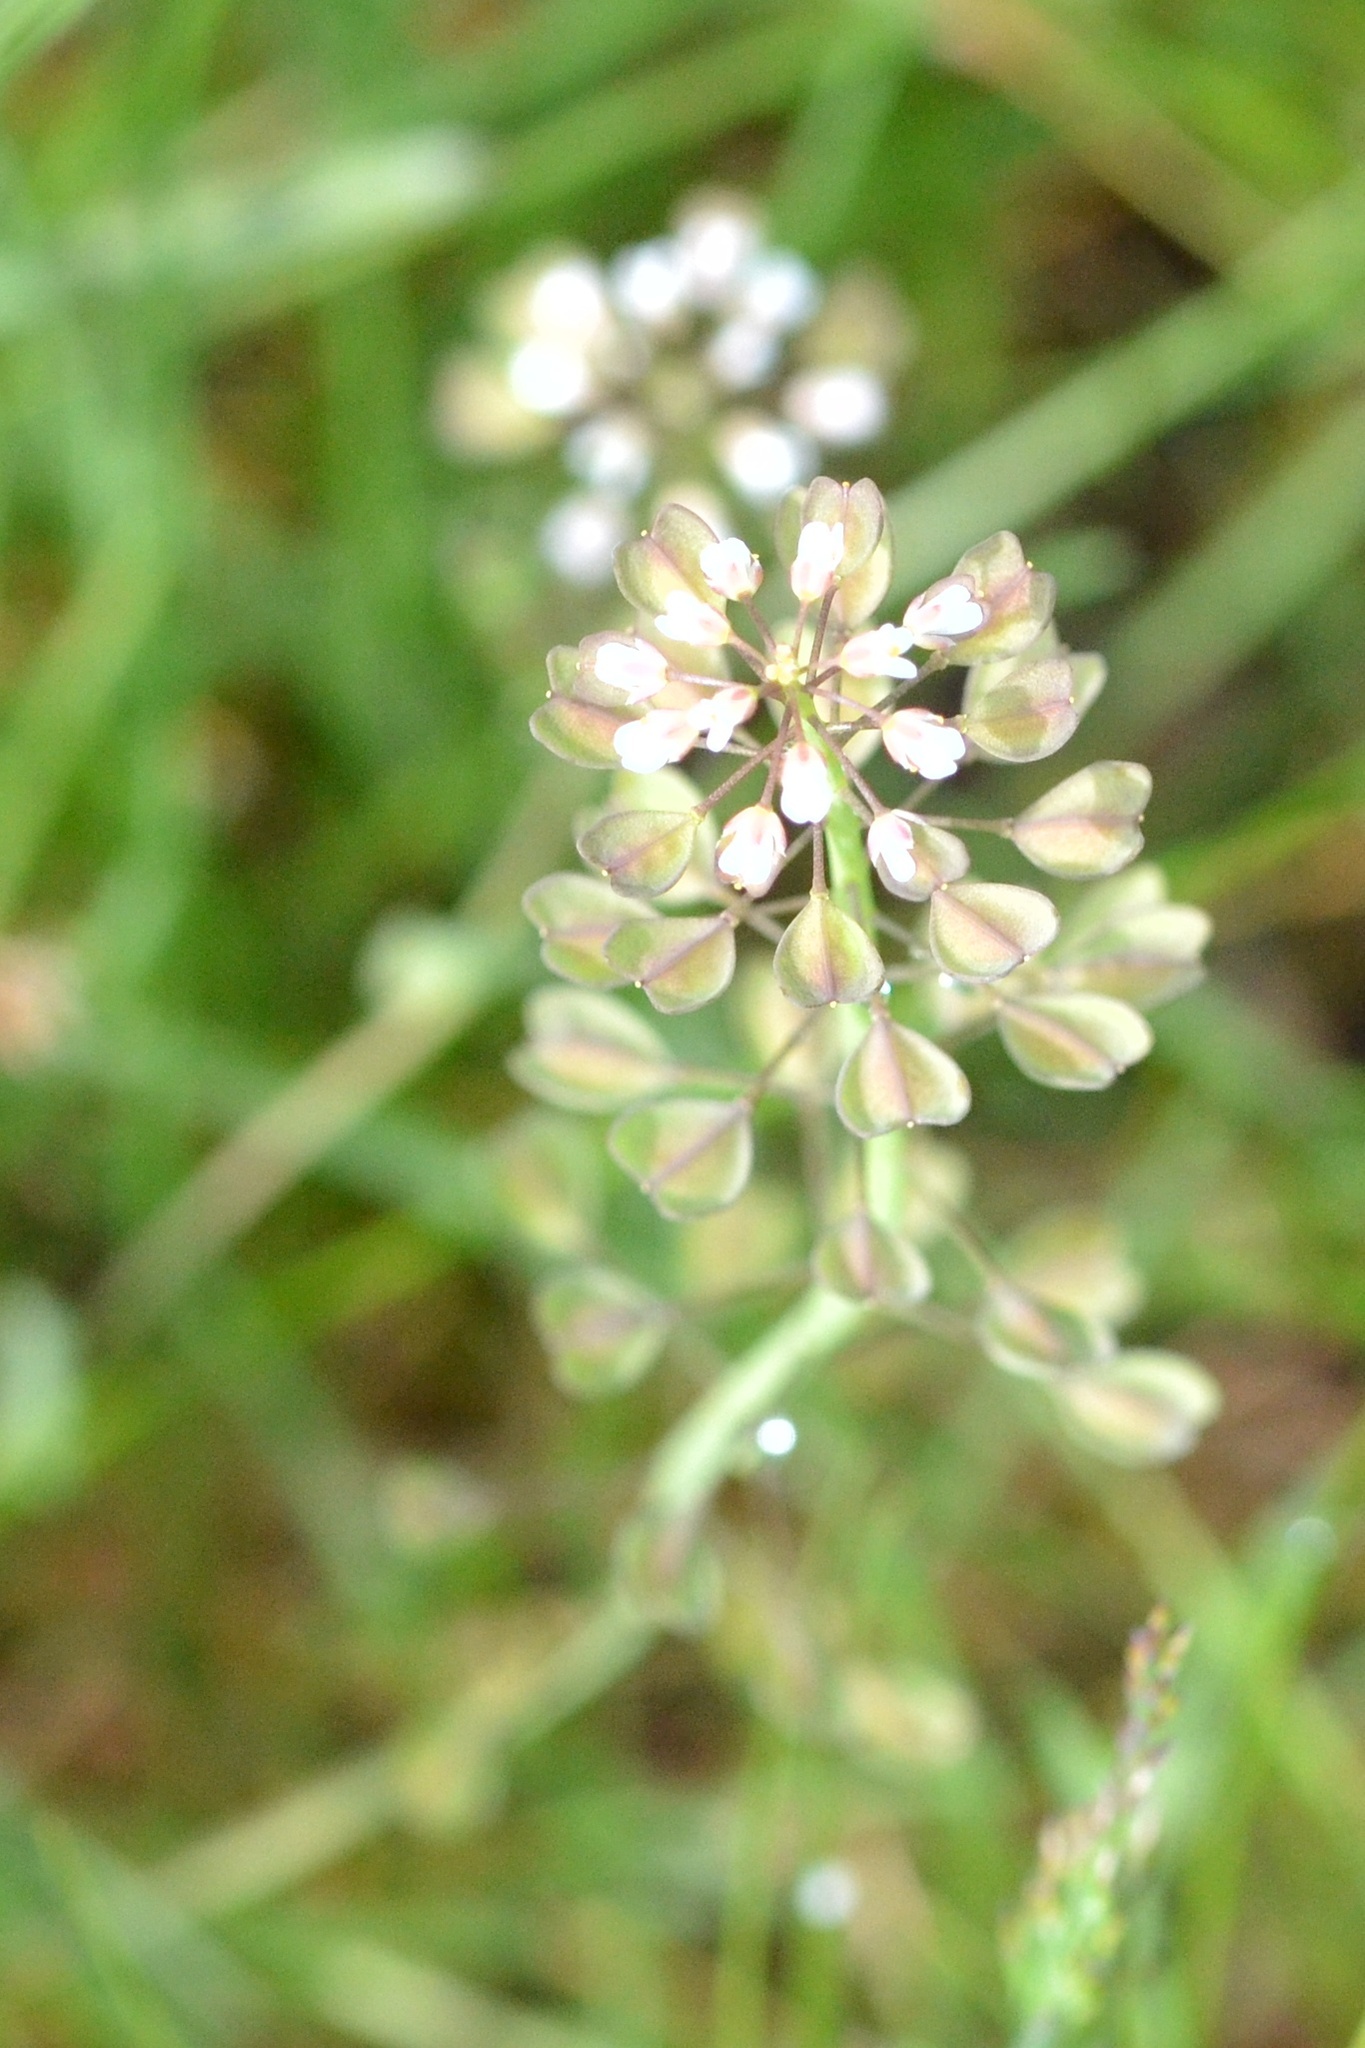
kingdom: Plantae
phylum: Tracheophyta
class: Magnoliopsida
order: Brassicales
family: Brassicaceae
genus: Noccaea
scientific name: Noccaea perfoliata
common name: Perfoliate pennycress
